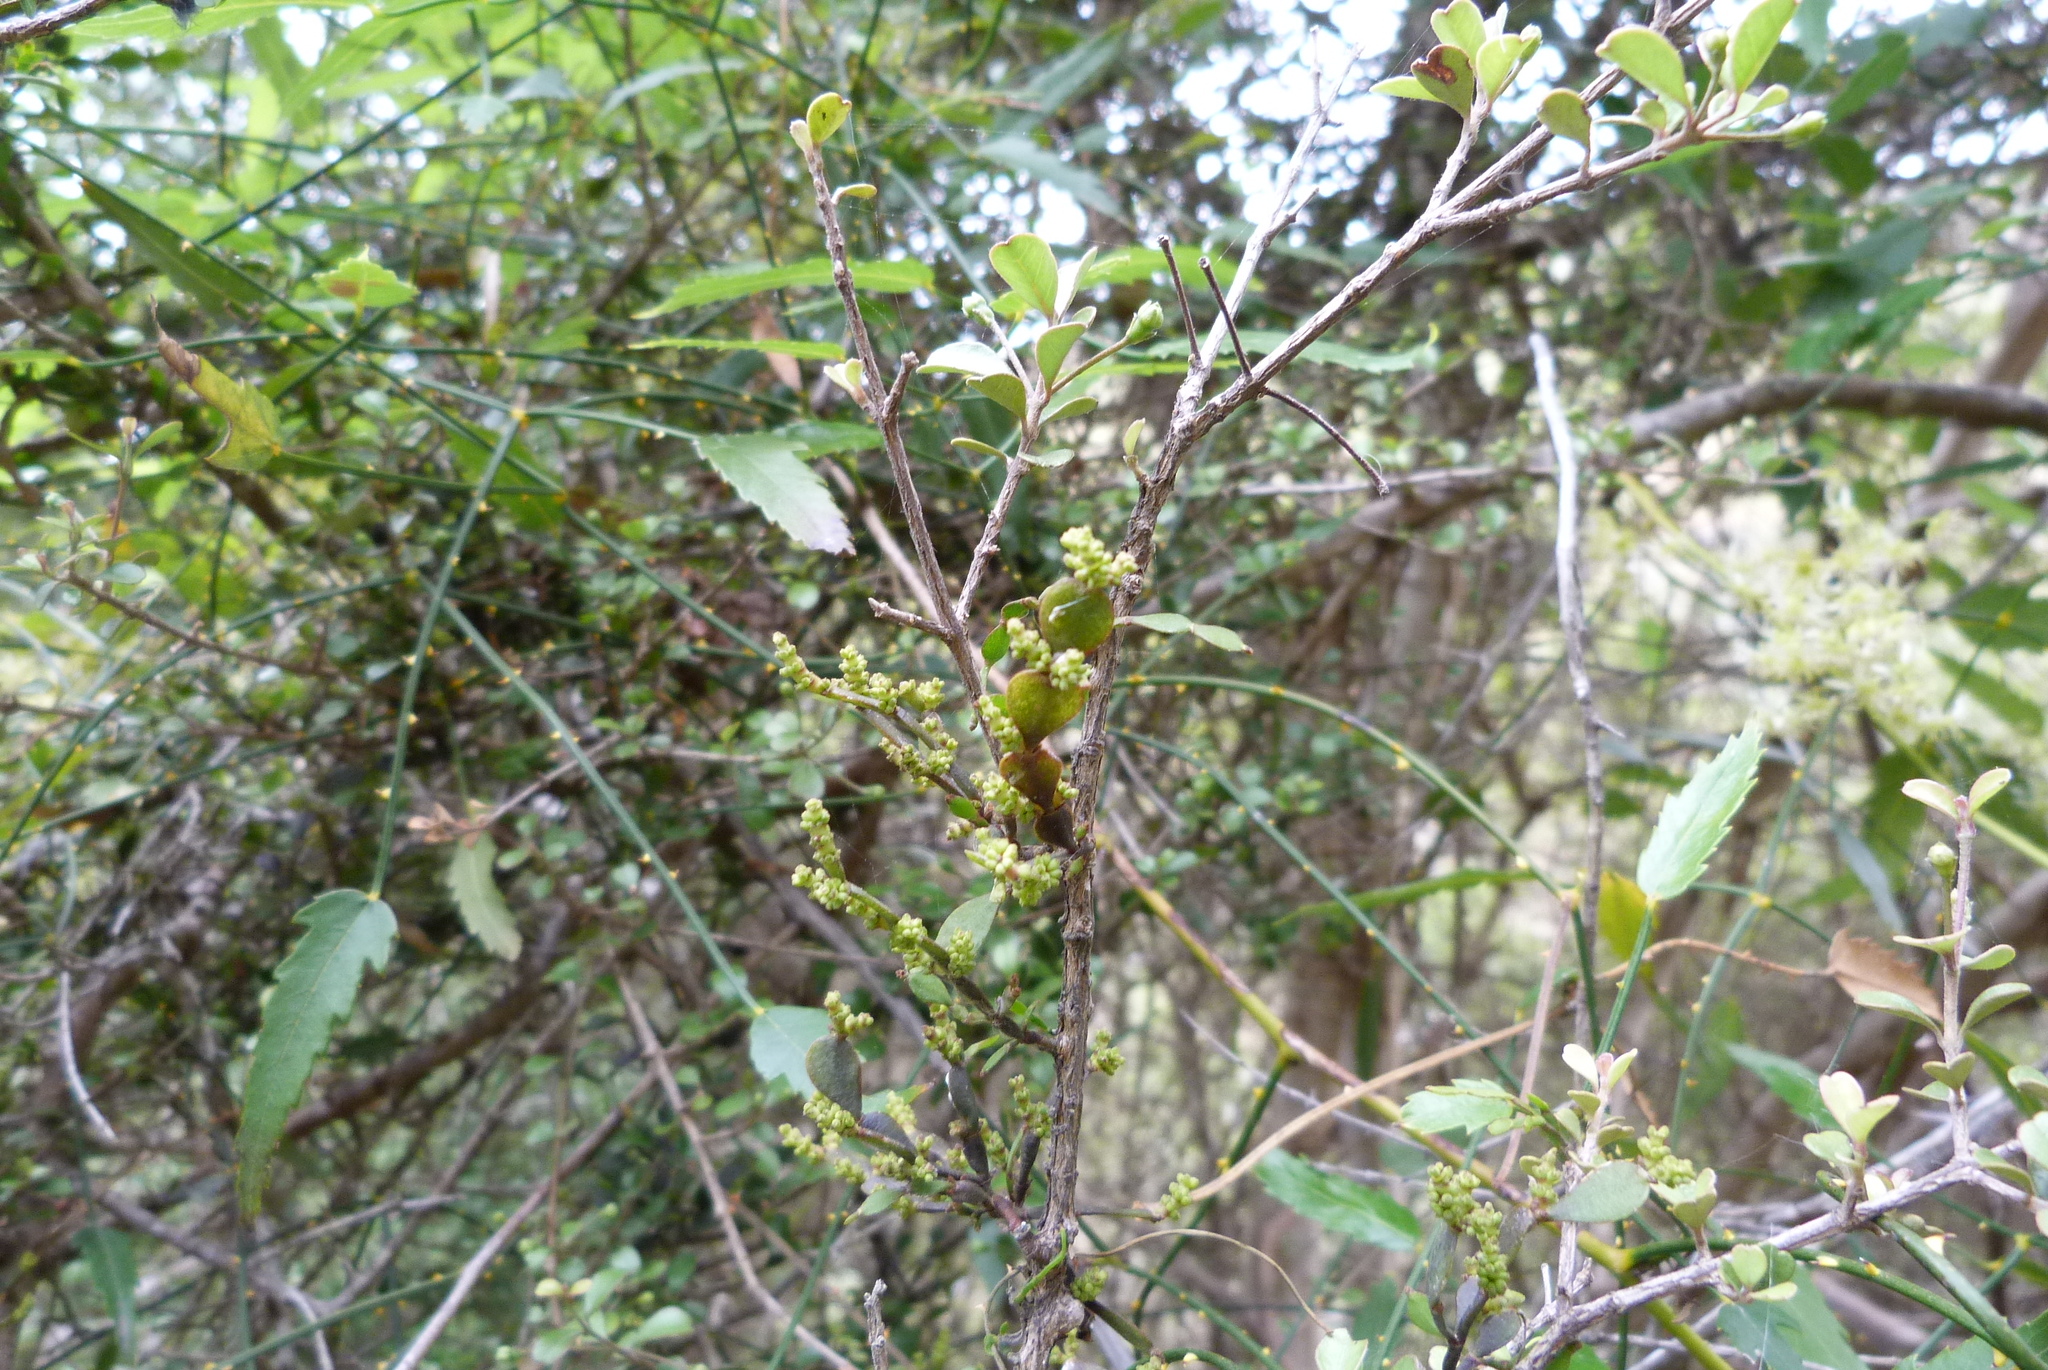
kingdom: Plantae
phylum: Tracheophyta
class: Magnoliopsida
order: Santalales
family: Viscaceae
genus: Korthalsella
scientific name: Korthalsella lindsayi
